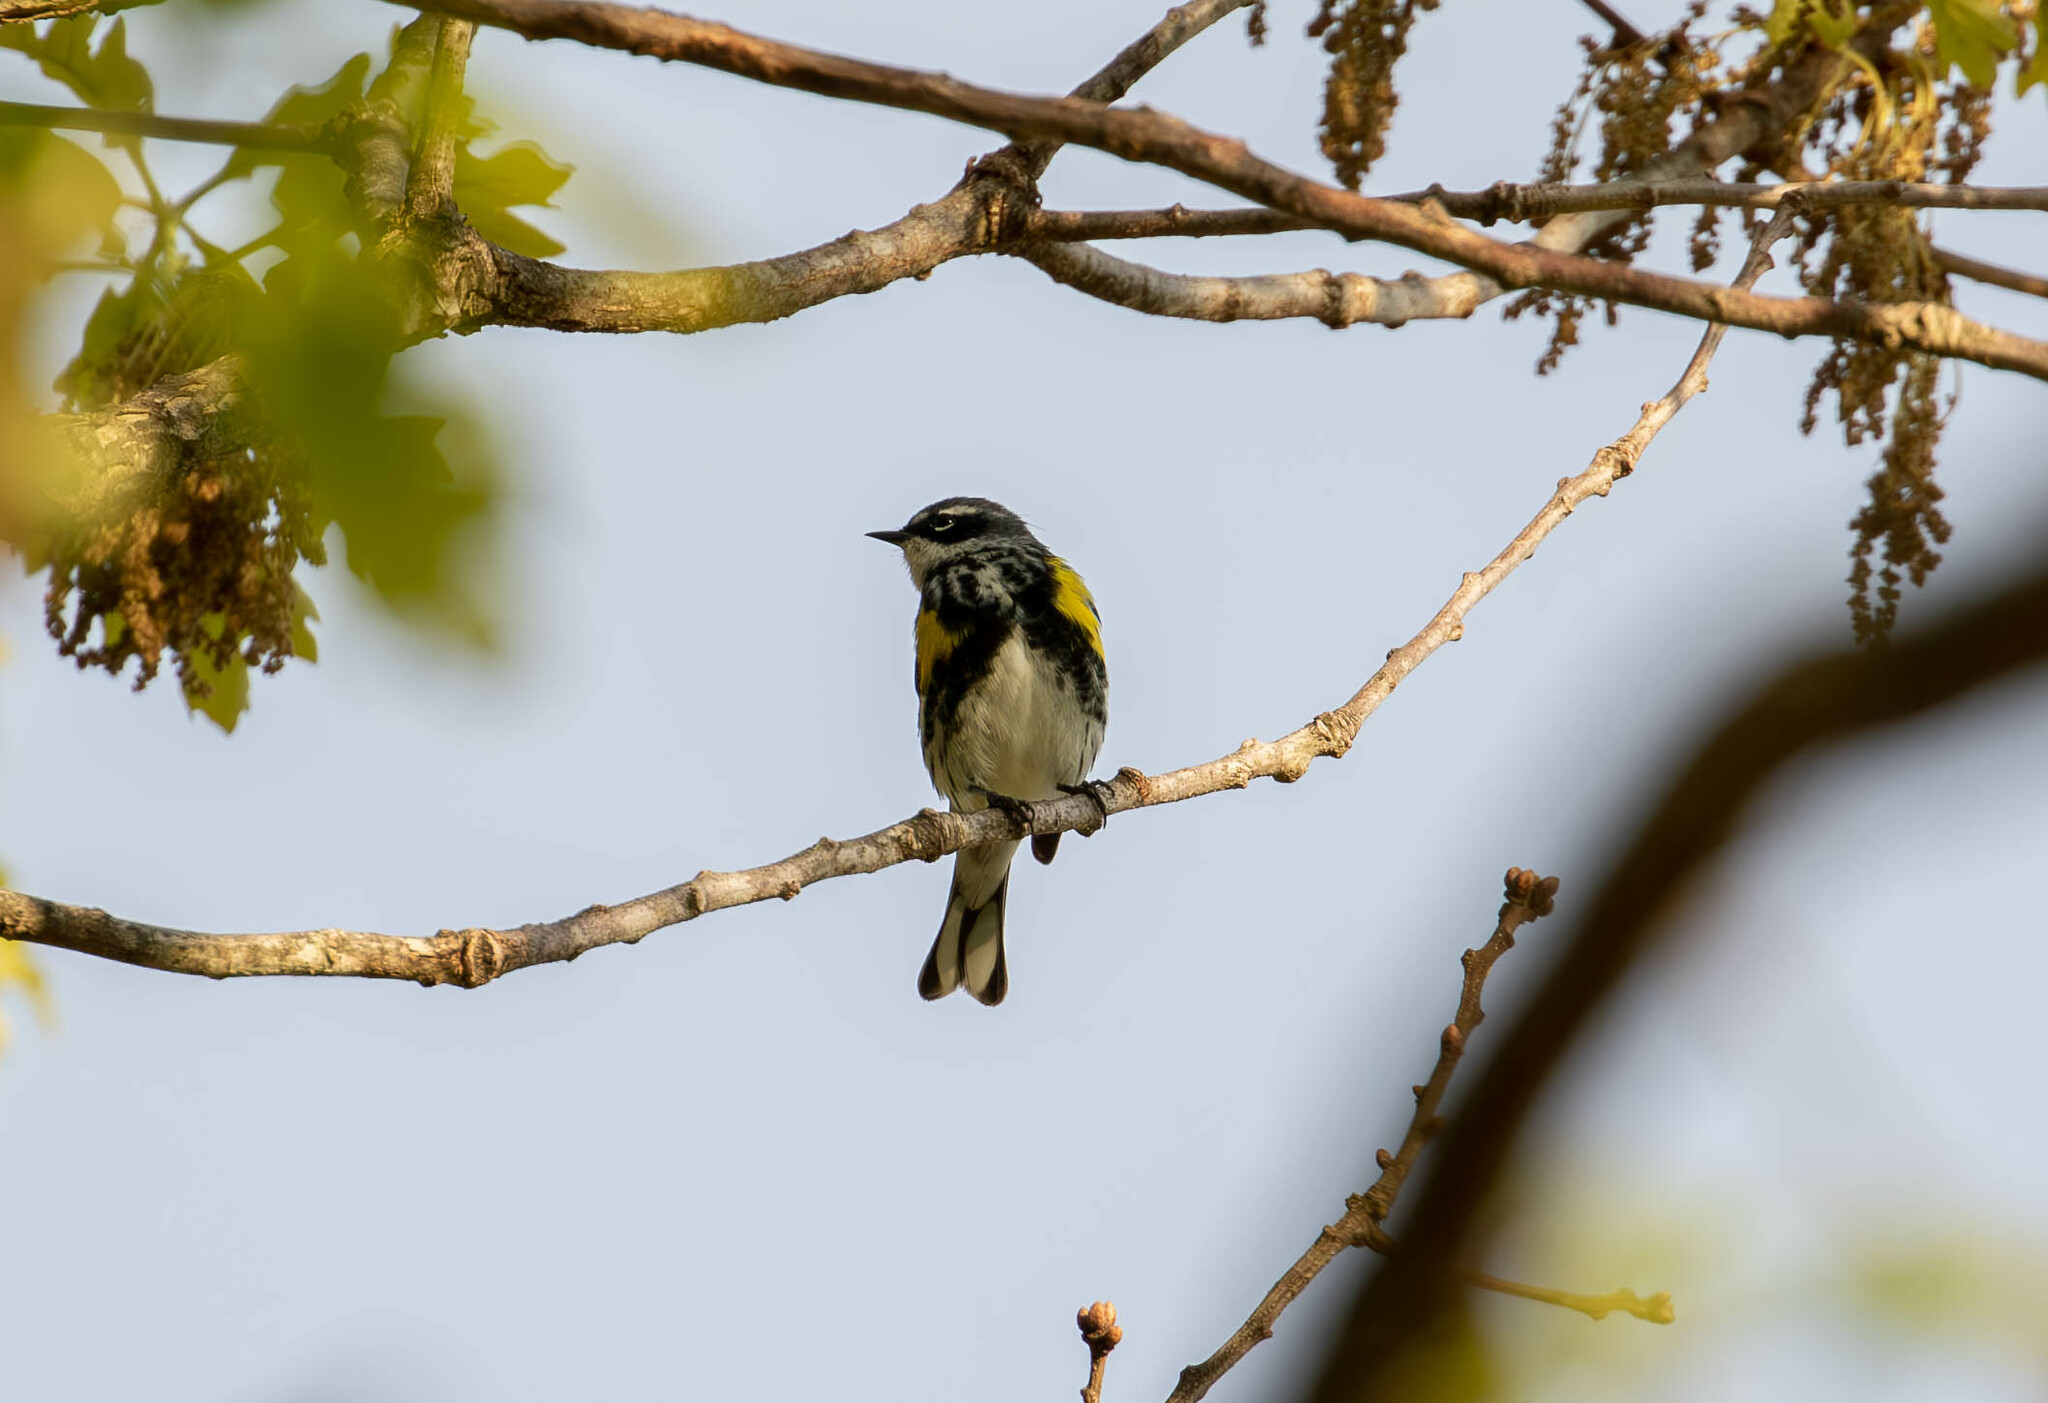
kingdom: Animalia
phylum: Chordata
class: Aves
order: Passeriformes
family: Parulidae
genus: Setophaga
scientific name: Setophaga coronata
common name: Myrtle warbler
